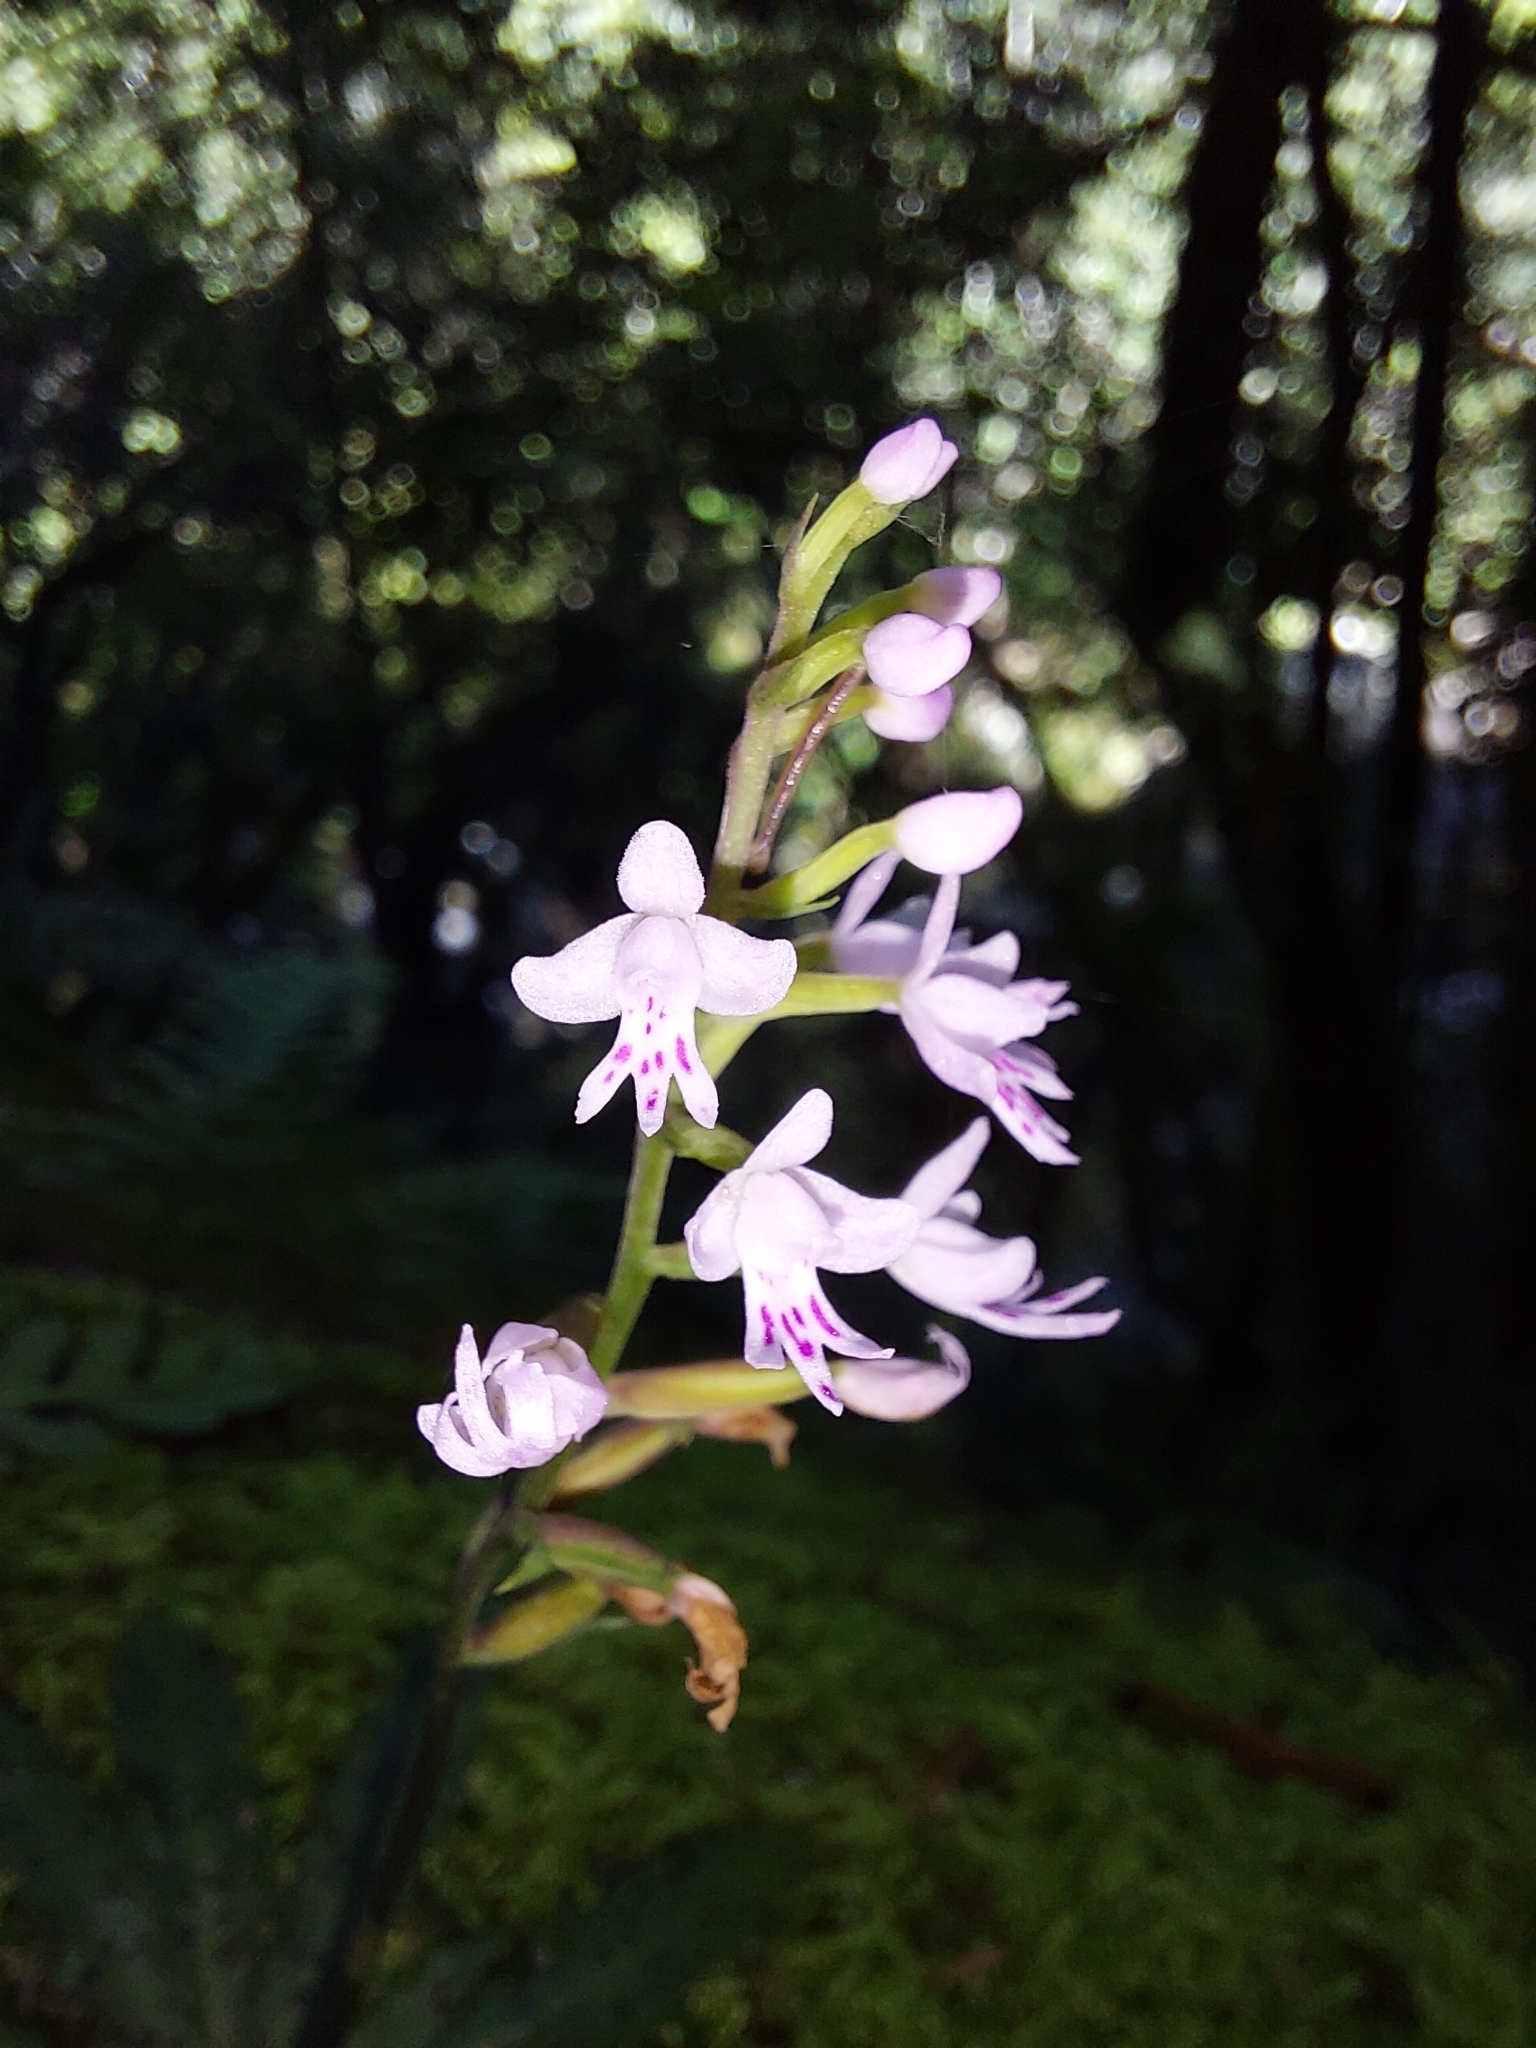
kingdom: Plantae
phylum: Tracheophyta
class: Liliopsida
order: Asparagales
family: Orchidaceae
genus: Stenoglottis
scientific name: Stenoglottis fimbriata
